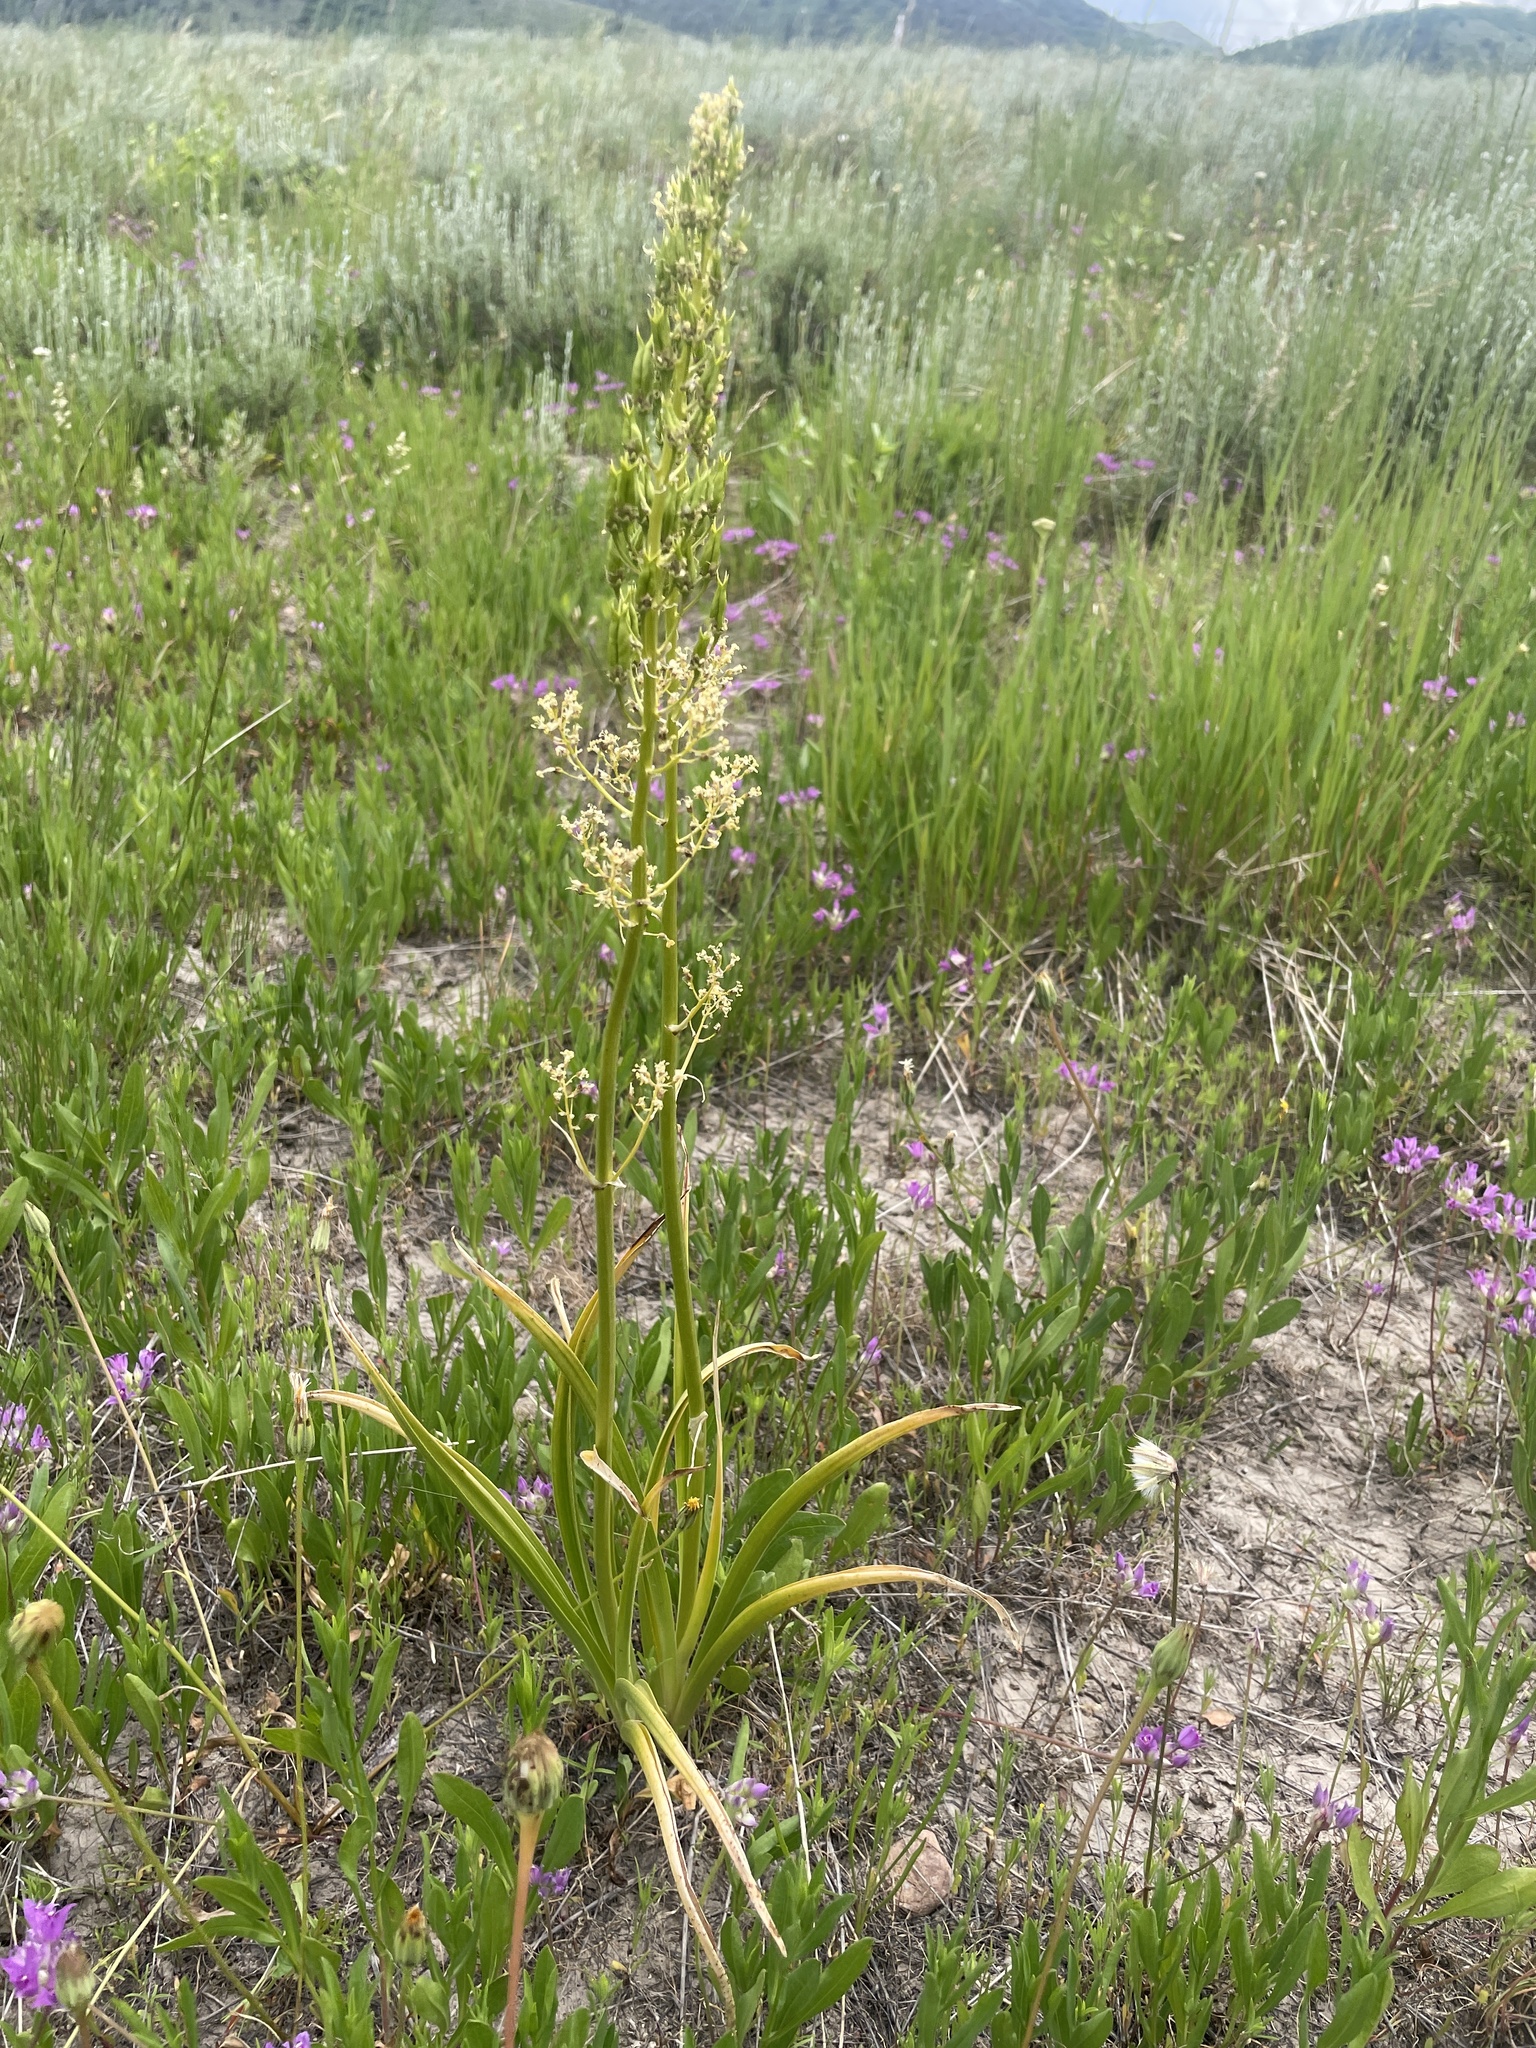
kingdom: Plantae
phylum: Tracheophyta
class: Liliopsida
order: Liliales
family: Melanthiaceae
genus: Toxicoscordion
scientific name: Toxicoscordion paniculatum
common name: Foothill death camas
